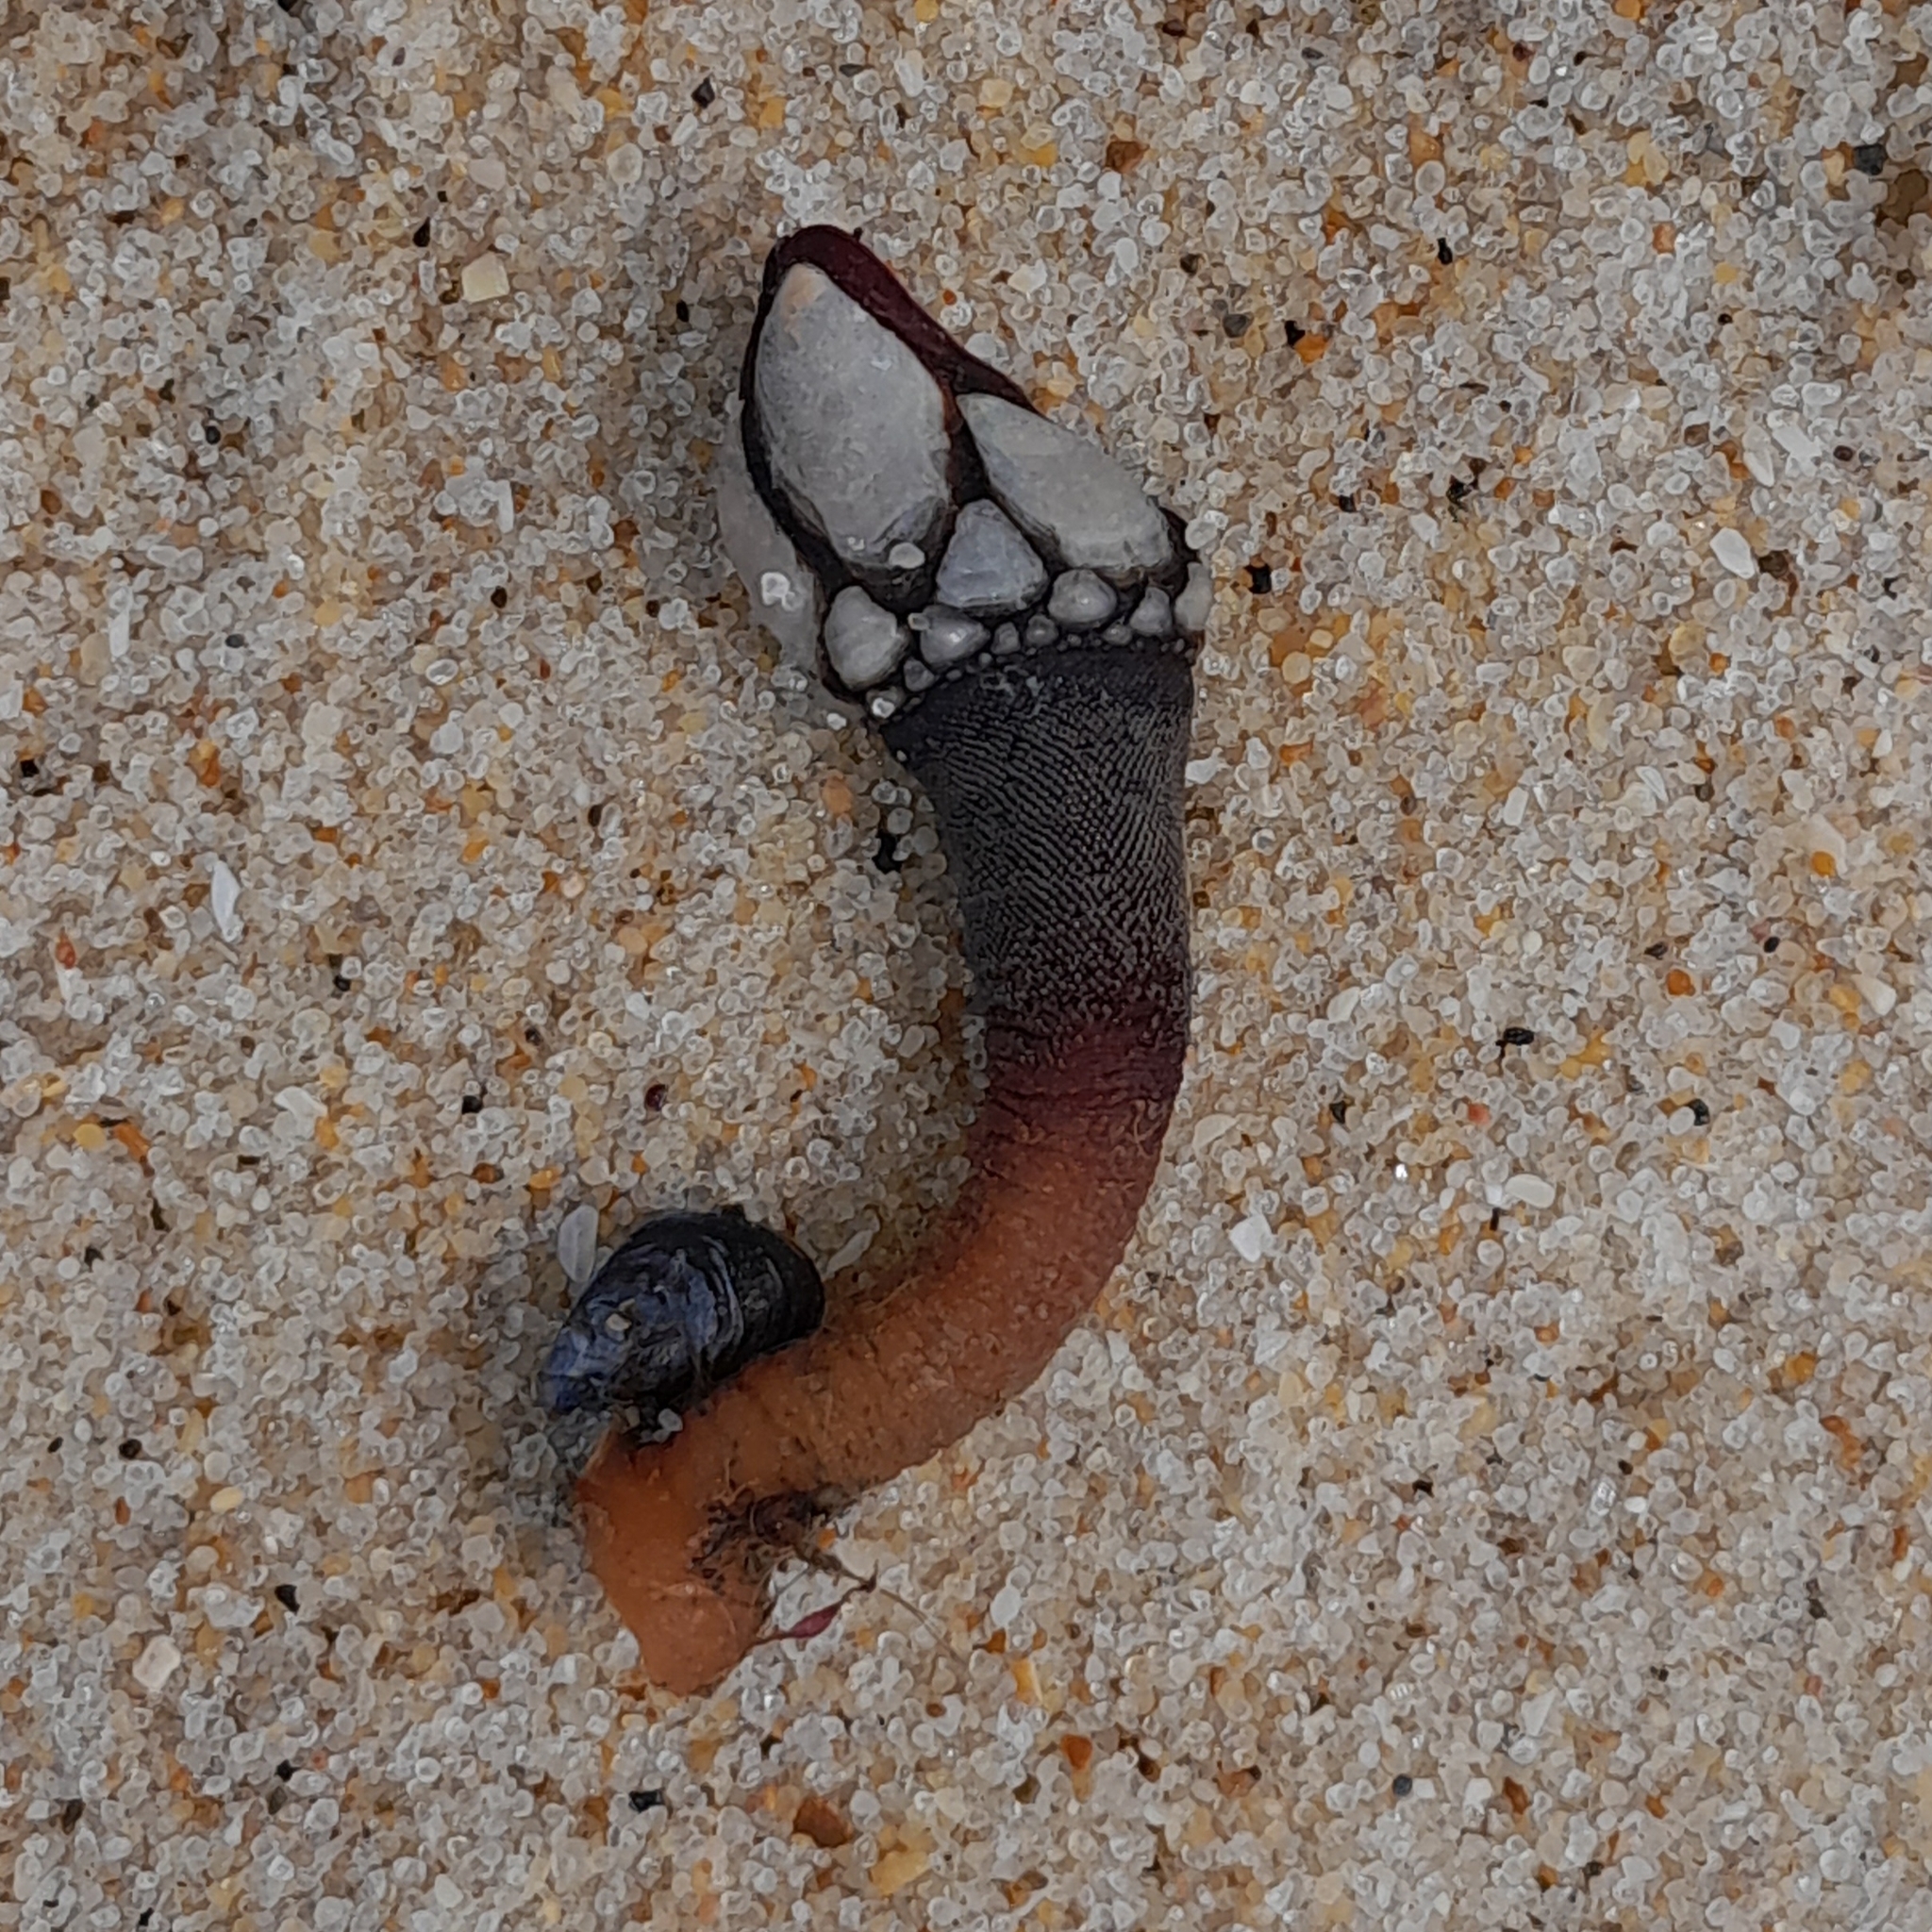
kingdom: Animalia
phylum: Arthropoda
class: Maxillopoda
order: Pedunculata
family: Pollicipedidae
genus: Pollicipes
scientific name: Pollicipes pollicipes
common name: Gooseneck barnacle
